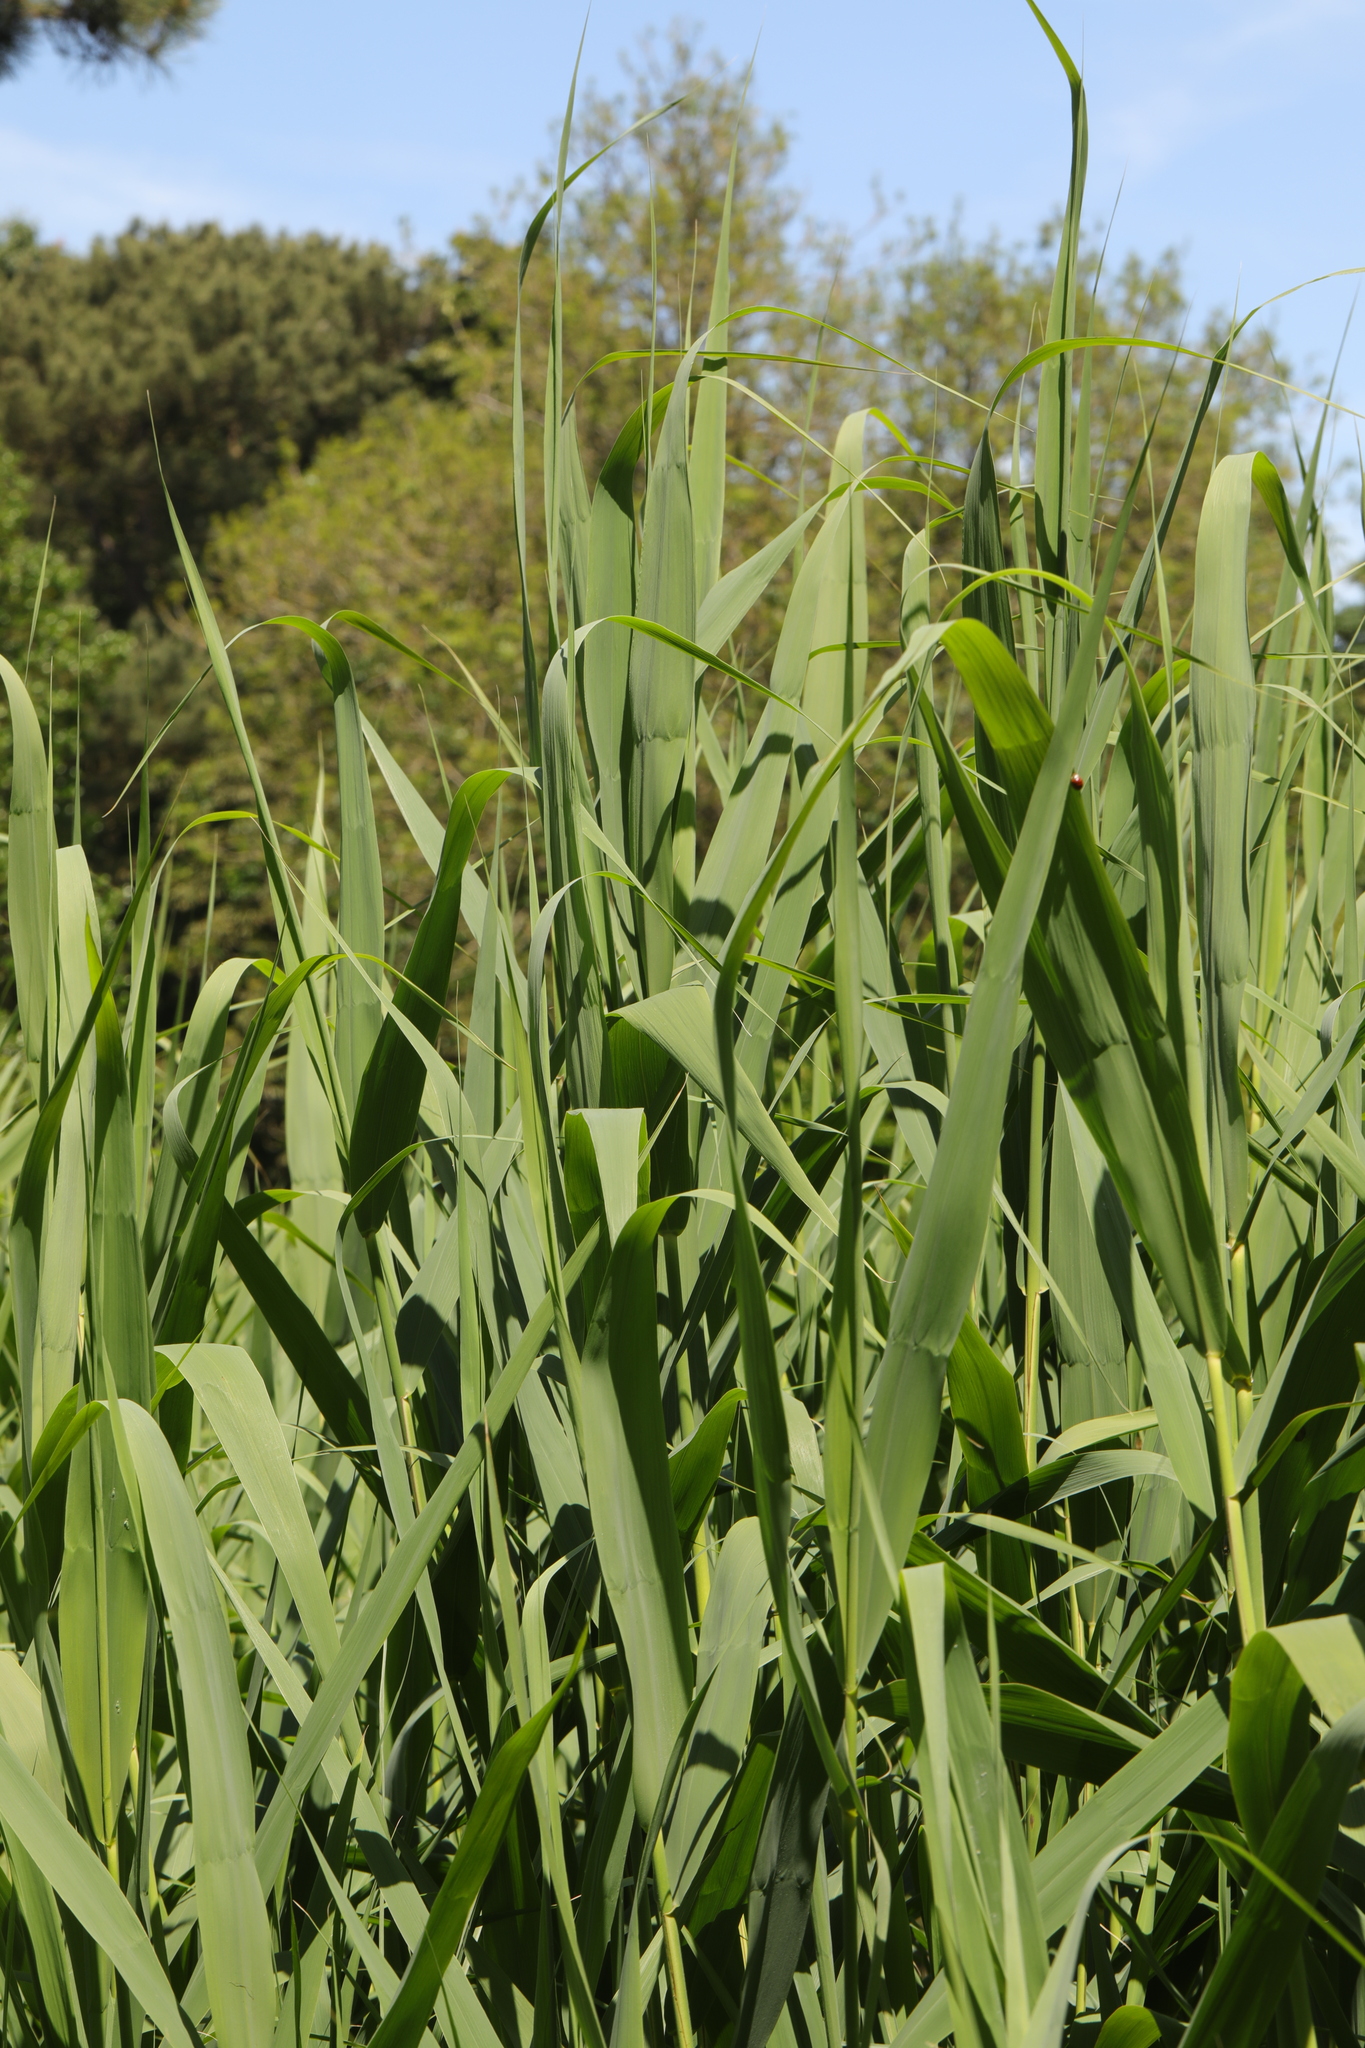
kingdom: Plantae
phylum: Tracheophyta
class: Liliopsida
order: Poales
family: Poaceae
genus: Phragmites
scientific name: Phragmites australis
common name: Common reed
